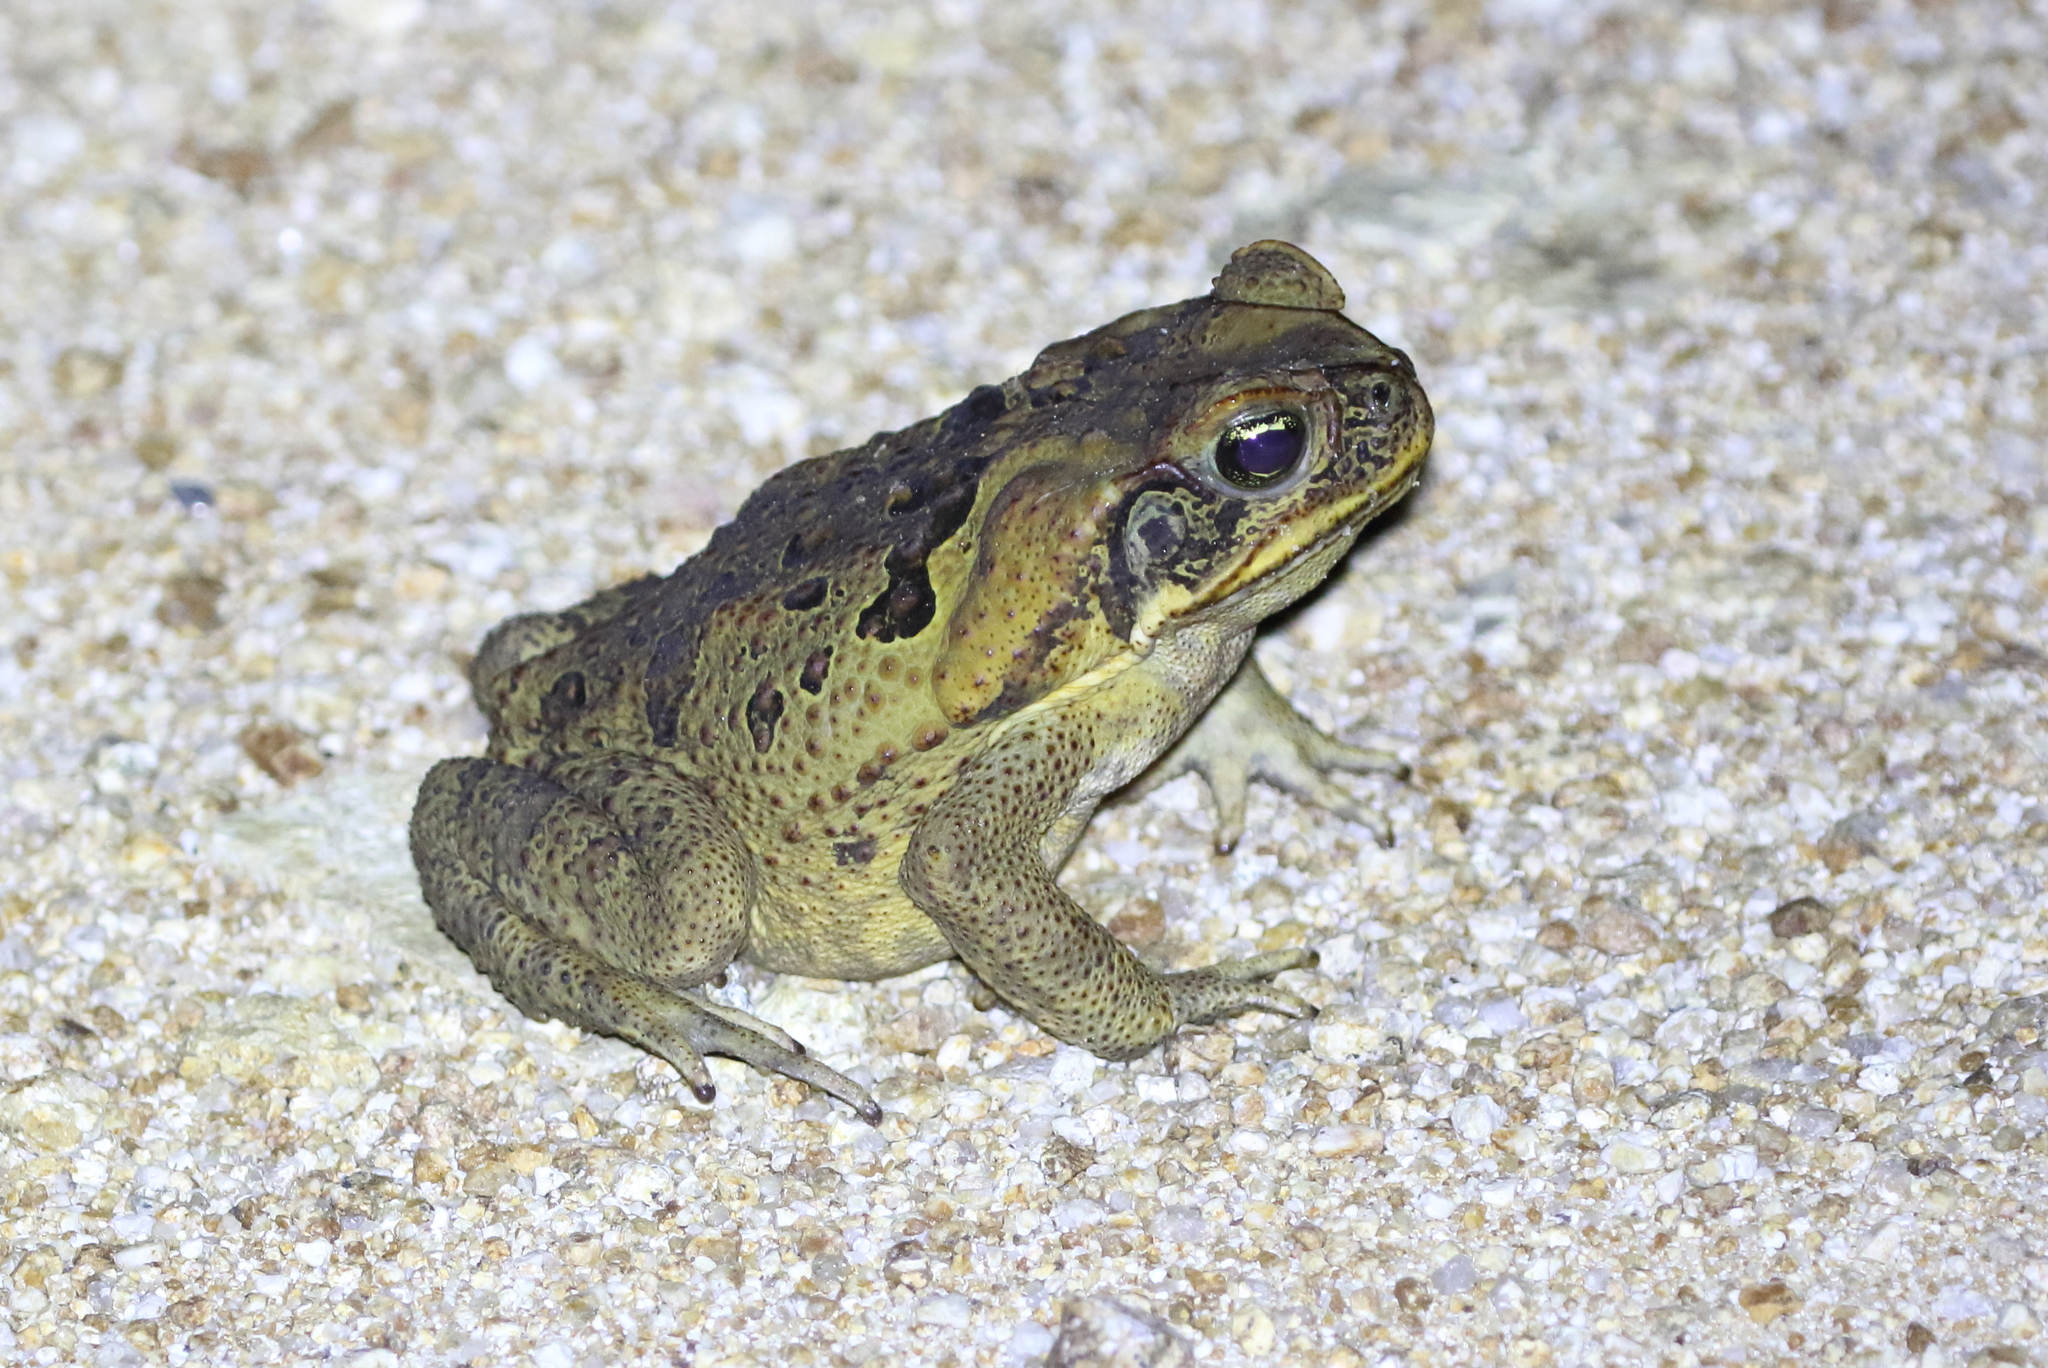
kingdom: Animalia
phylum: Chordata
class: Amphibia
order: Anura
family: Bufonidae
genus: Rhinella
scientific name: Rhinella marina
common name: Cane toad
